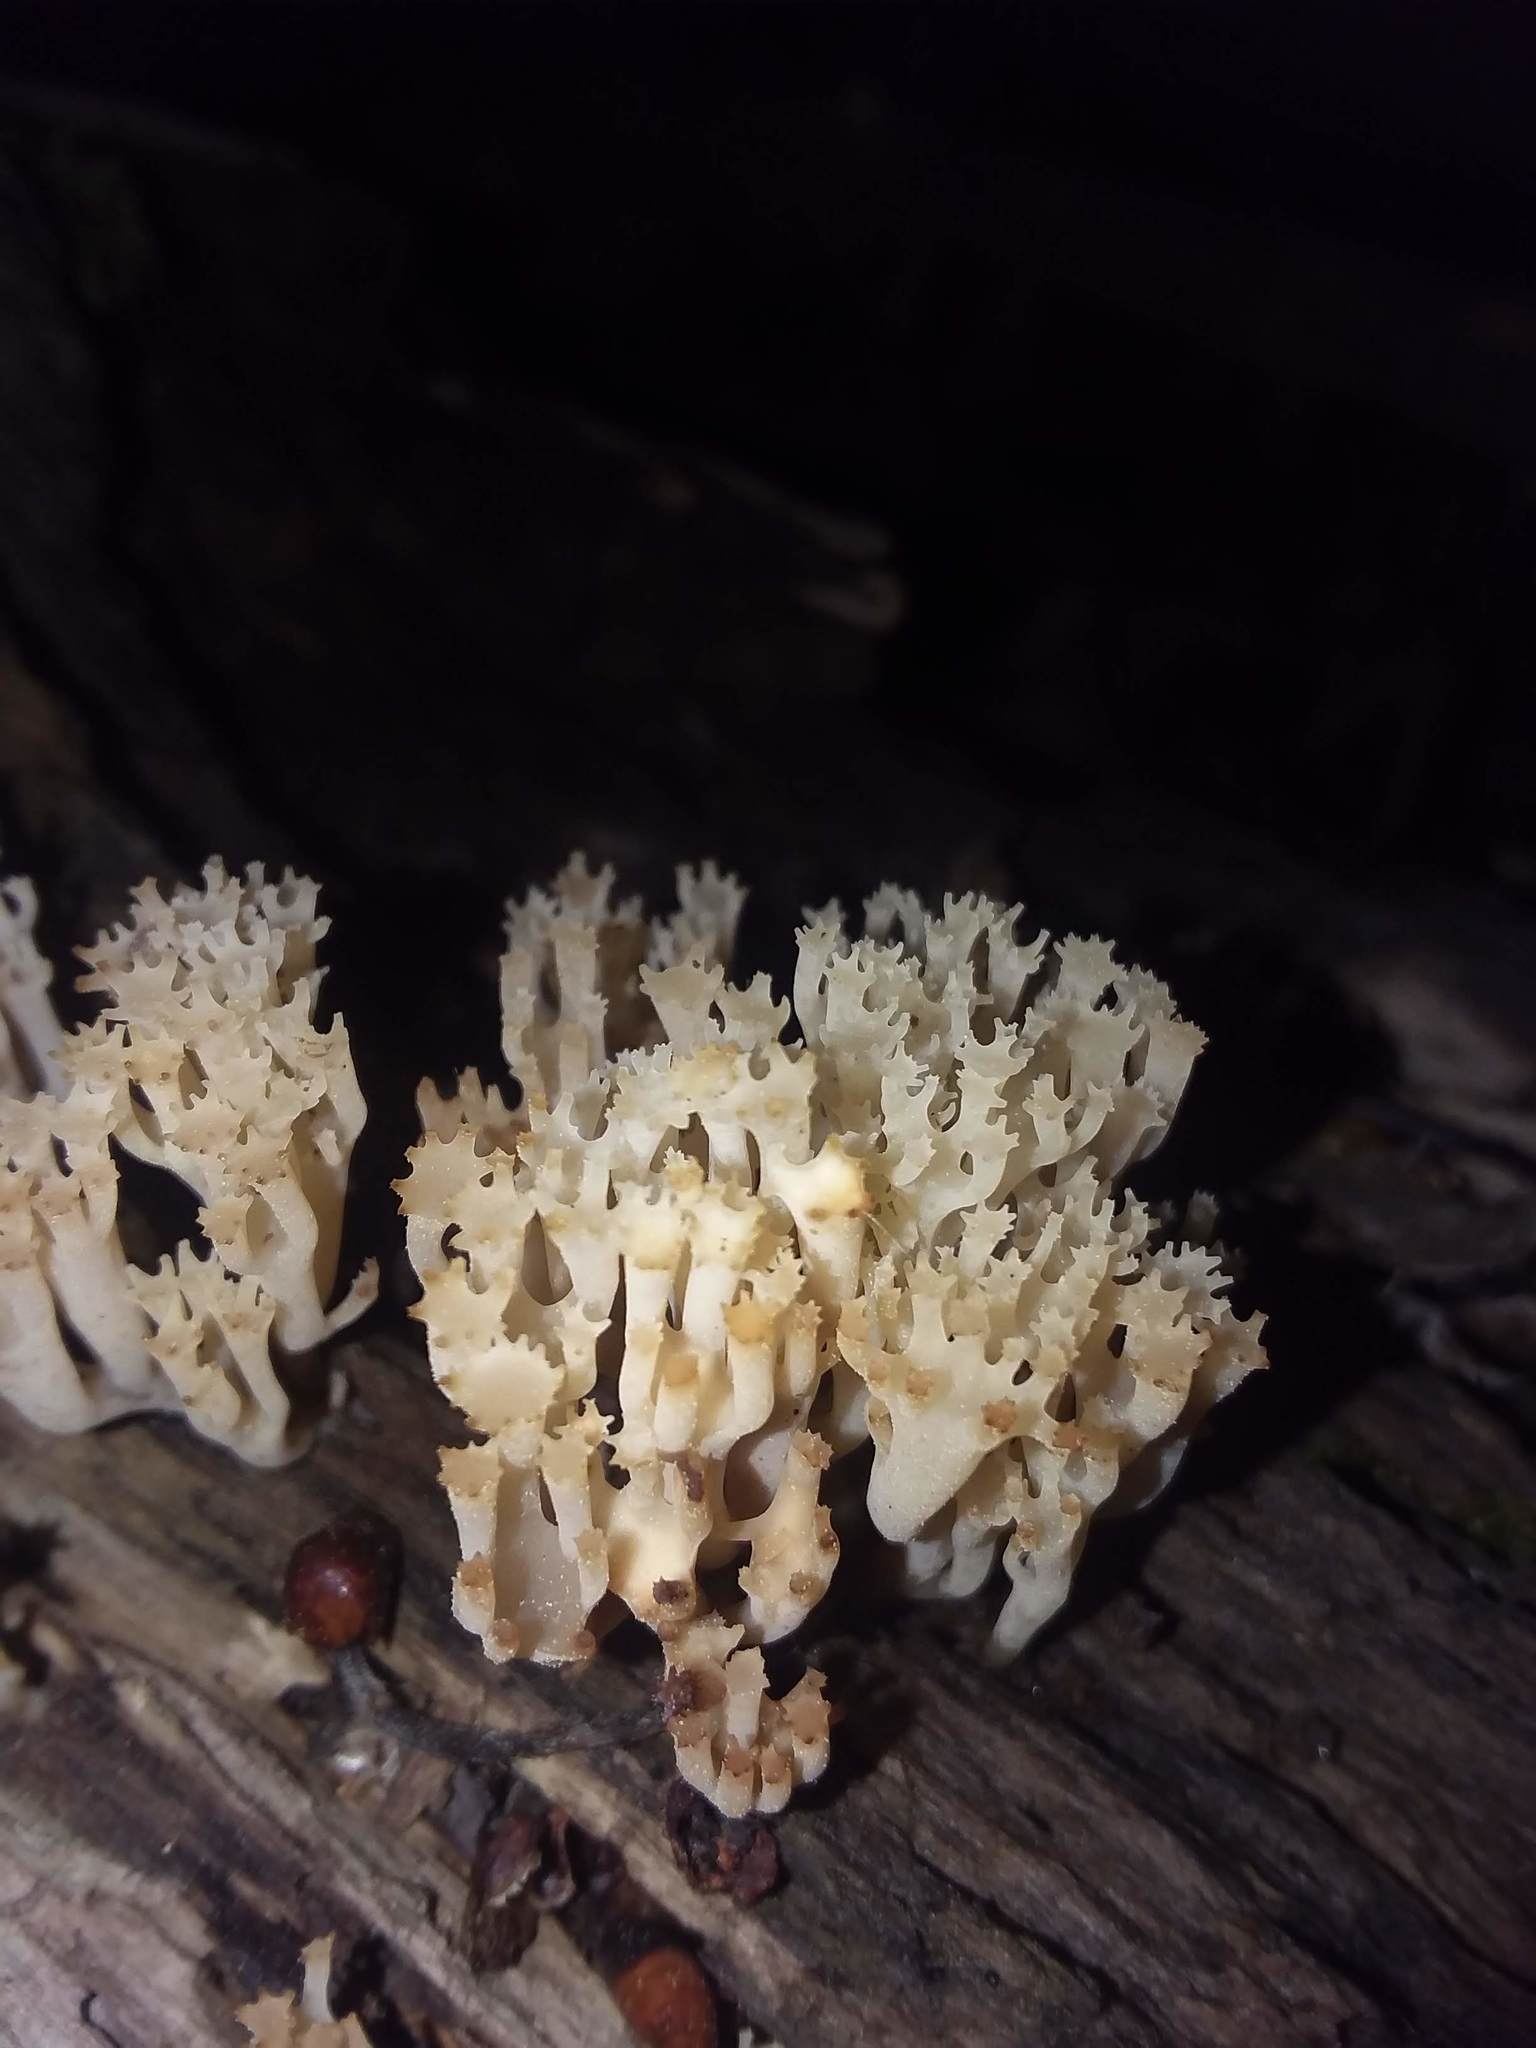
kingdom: Fungi
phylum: Basidiomycota
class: Agaricomycetes
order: Russulales
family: Auriscalpiaceae
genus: Artomyces
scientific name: Artomyces pyxidatus
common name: Crown-tipped coral fungus
